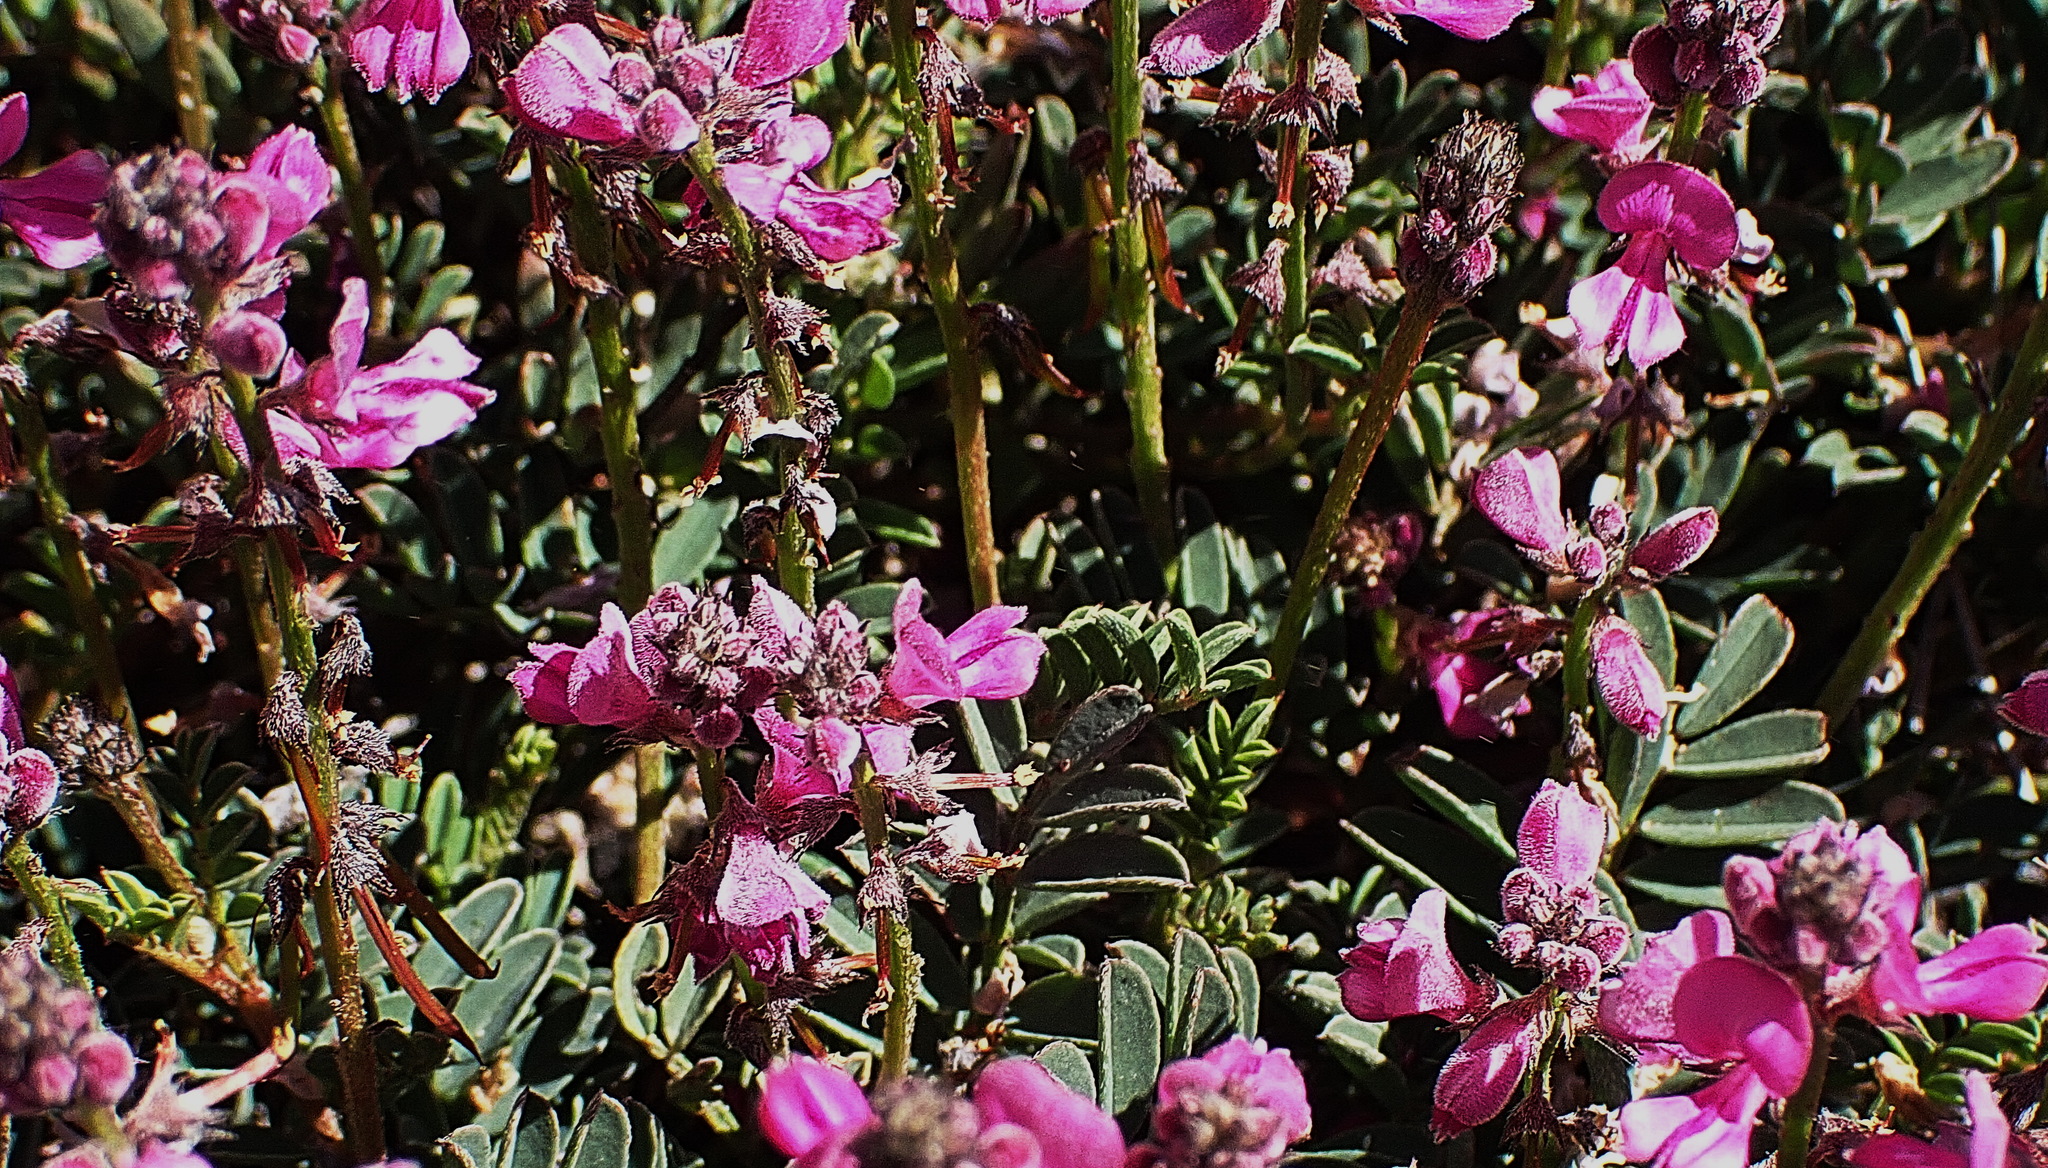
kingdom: Plantae
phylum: Tracheophyta
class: Magnoliopsida
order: Fabales
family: Fabaceae
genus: Indigofera
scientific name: Indigofera declinata
